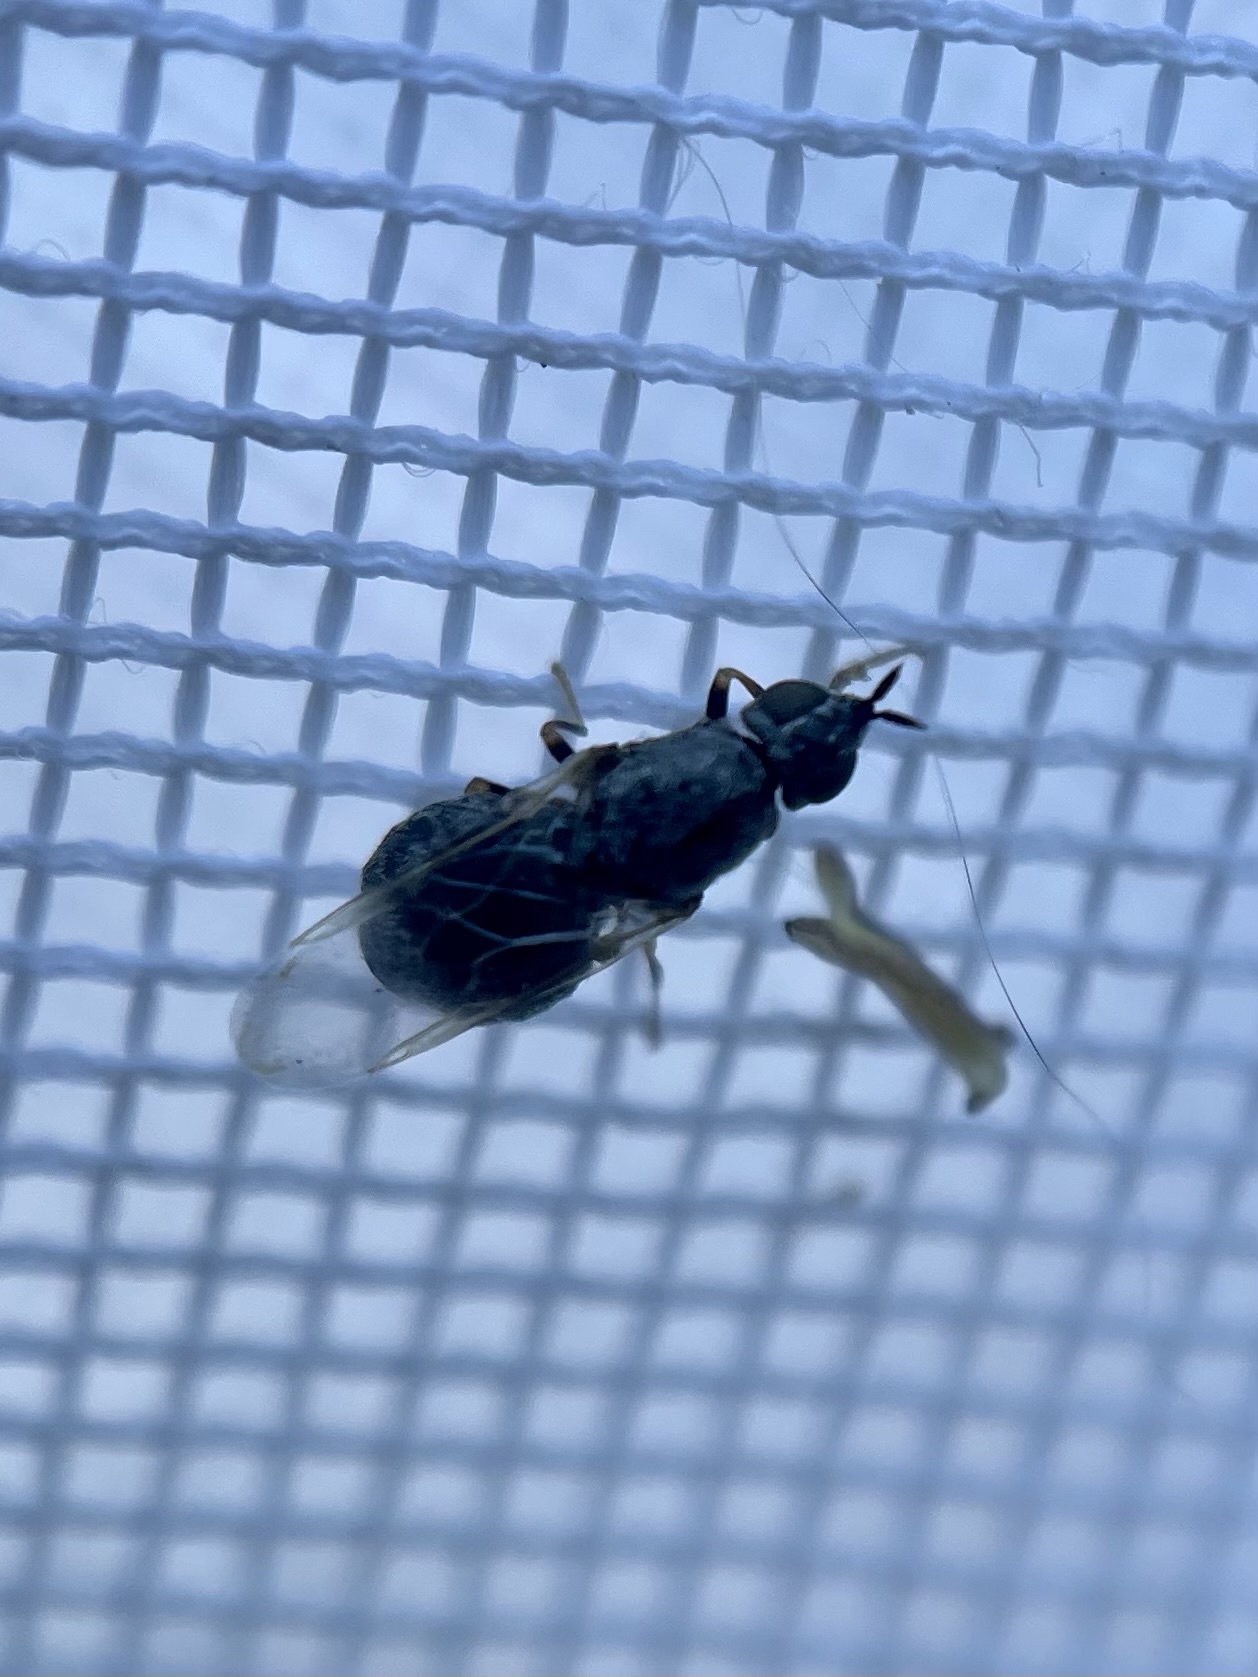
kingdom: Animalia
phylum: Arthropoda
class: Insecta
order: Diptera
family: Stratiomyidae
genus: Nemotelus
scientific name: Nemotelus bruesii
